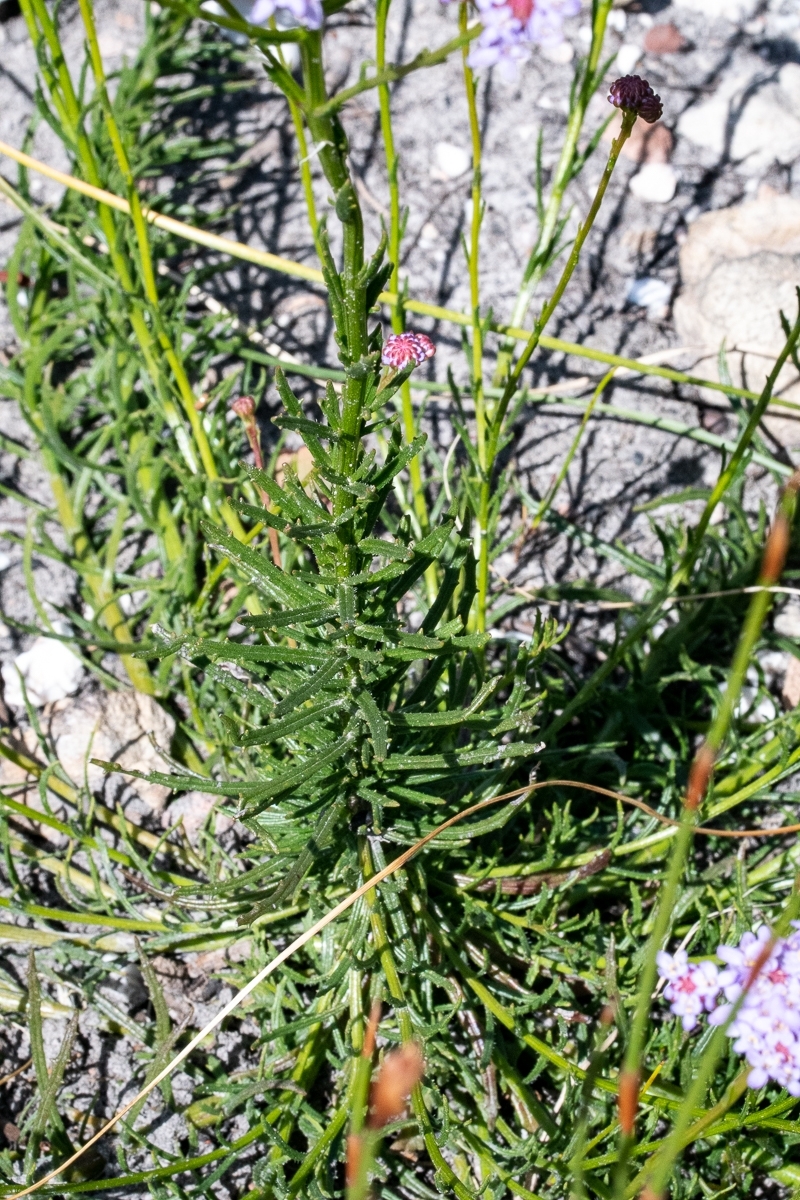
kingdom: Plantae
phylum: Tracheophyta
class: Magnoliopsida
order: Lamiales
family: Scrophulariaceae
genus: Pseudoselago
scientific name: Pseudoselago spuria
